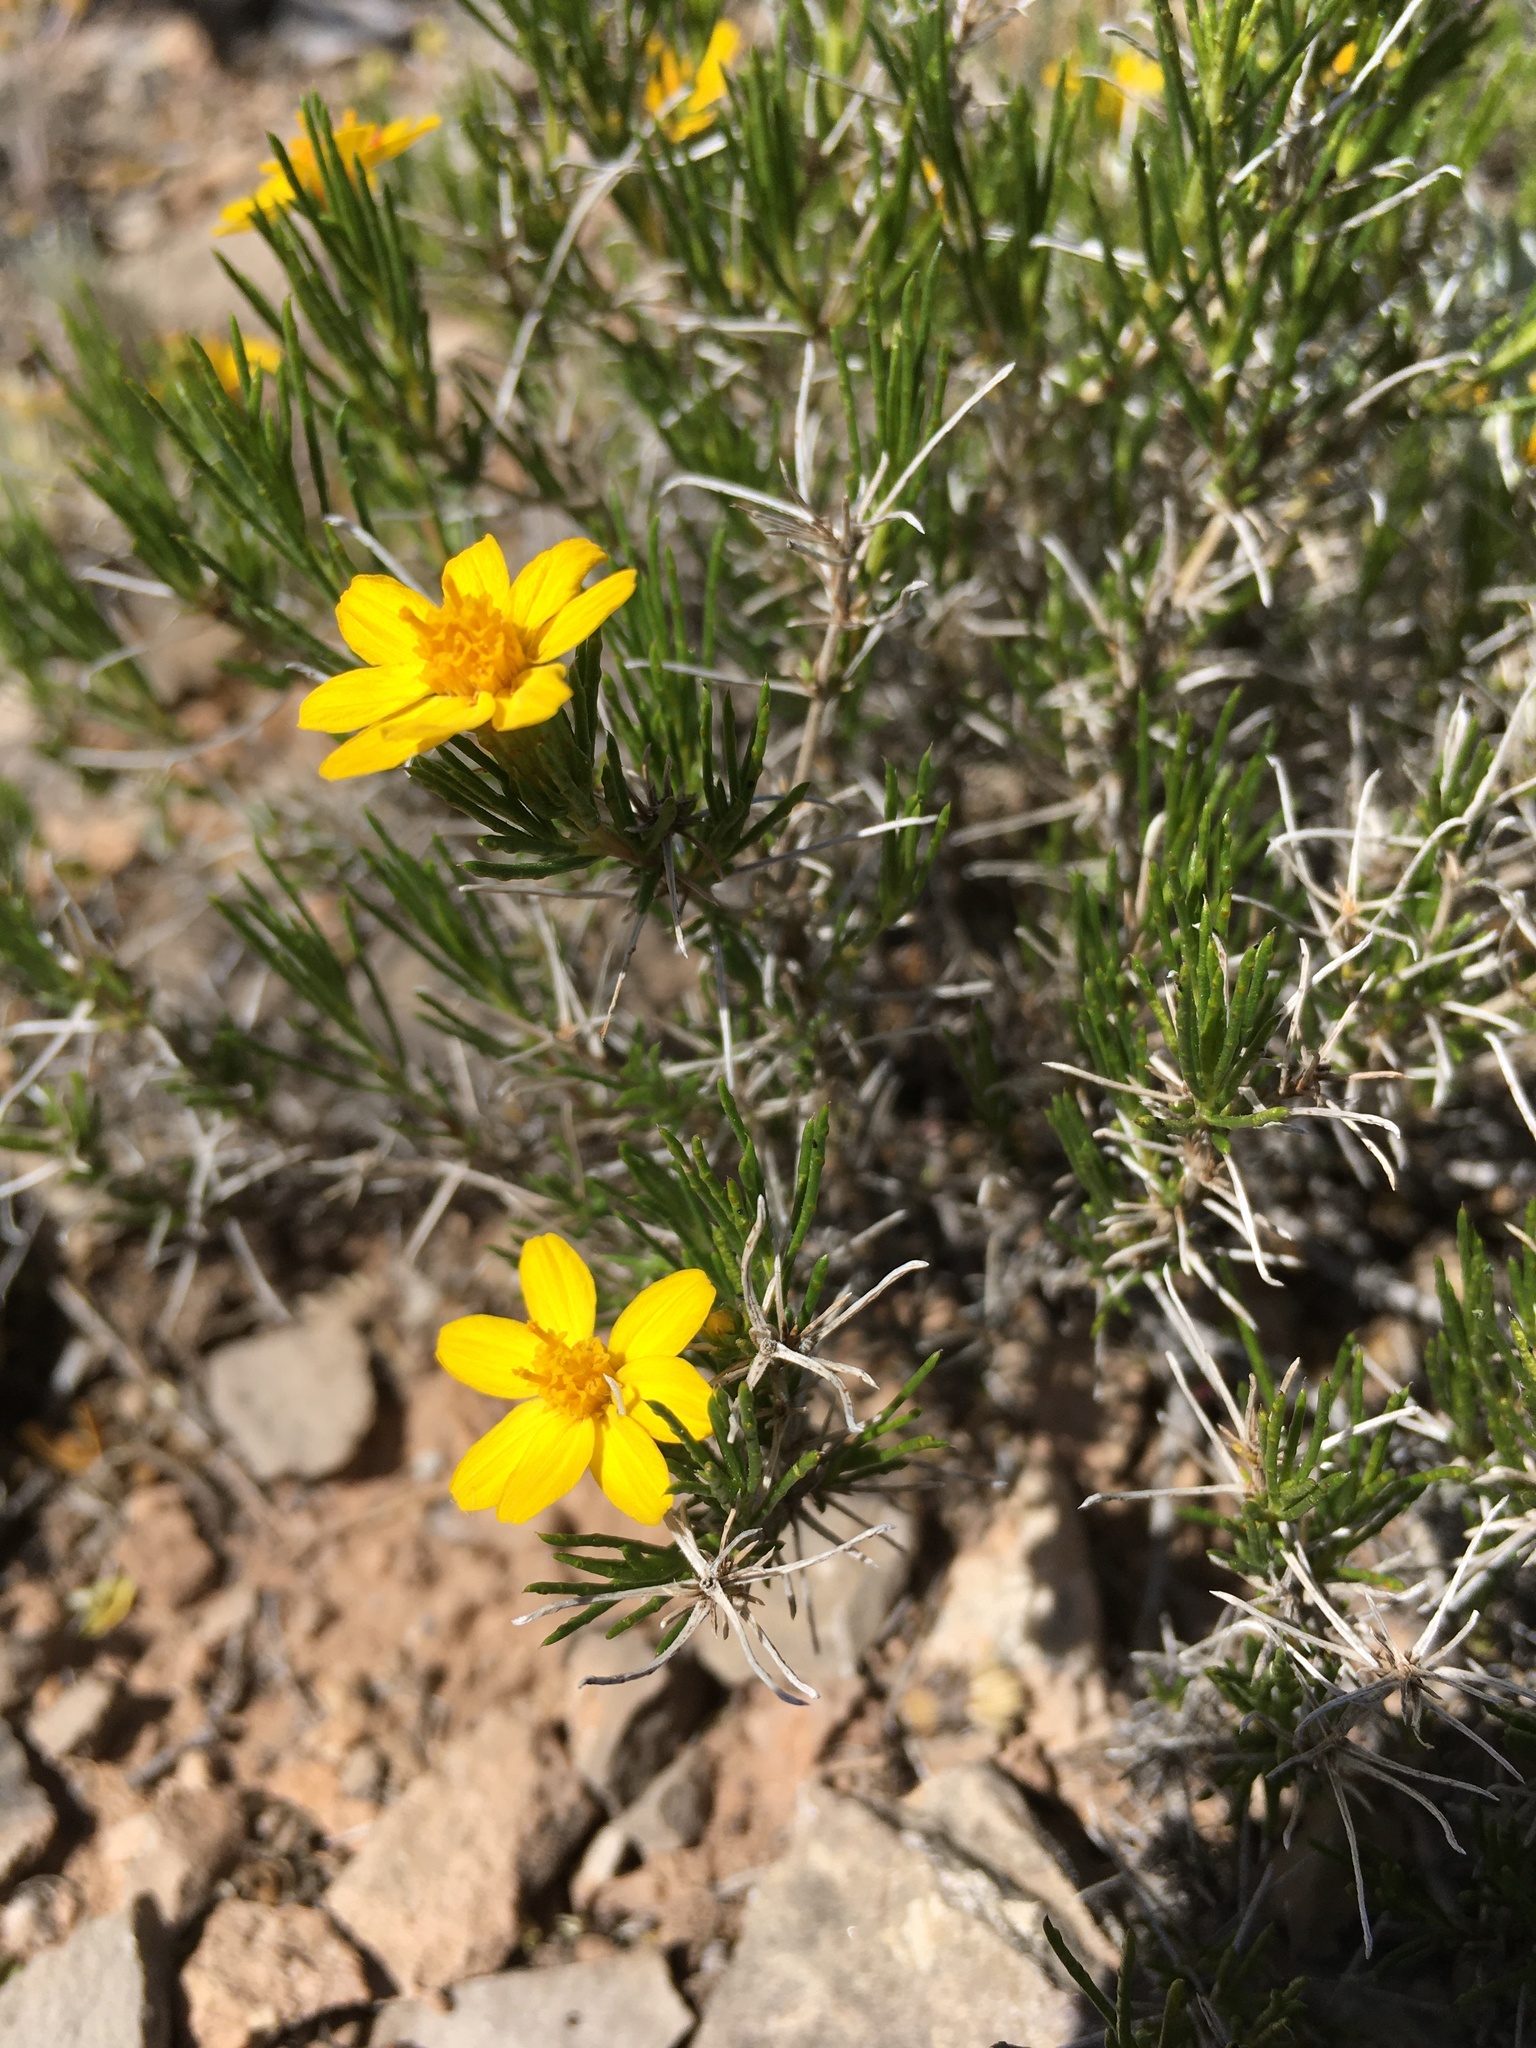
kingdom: Plantae
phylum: Tracheophyta
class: Magnoliopsida
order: Asterales
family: Asteraceae
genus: Thymophylla
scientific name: Thymophylla acerosa
